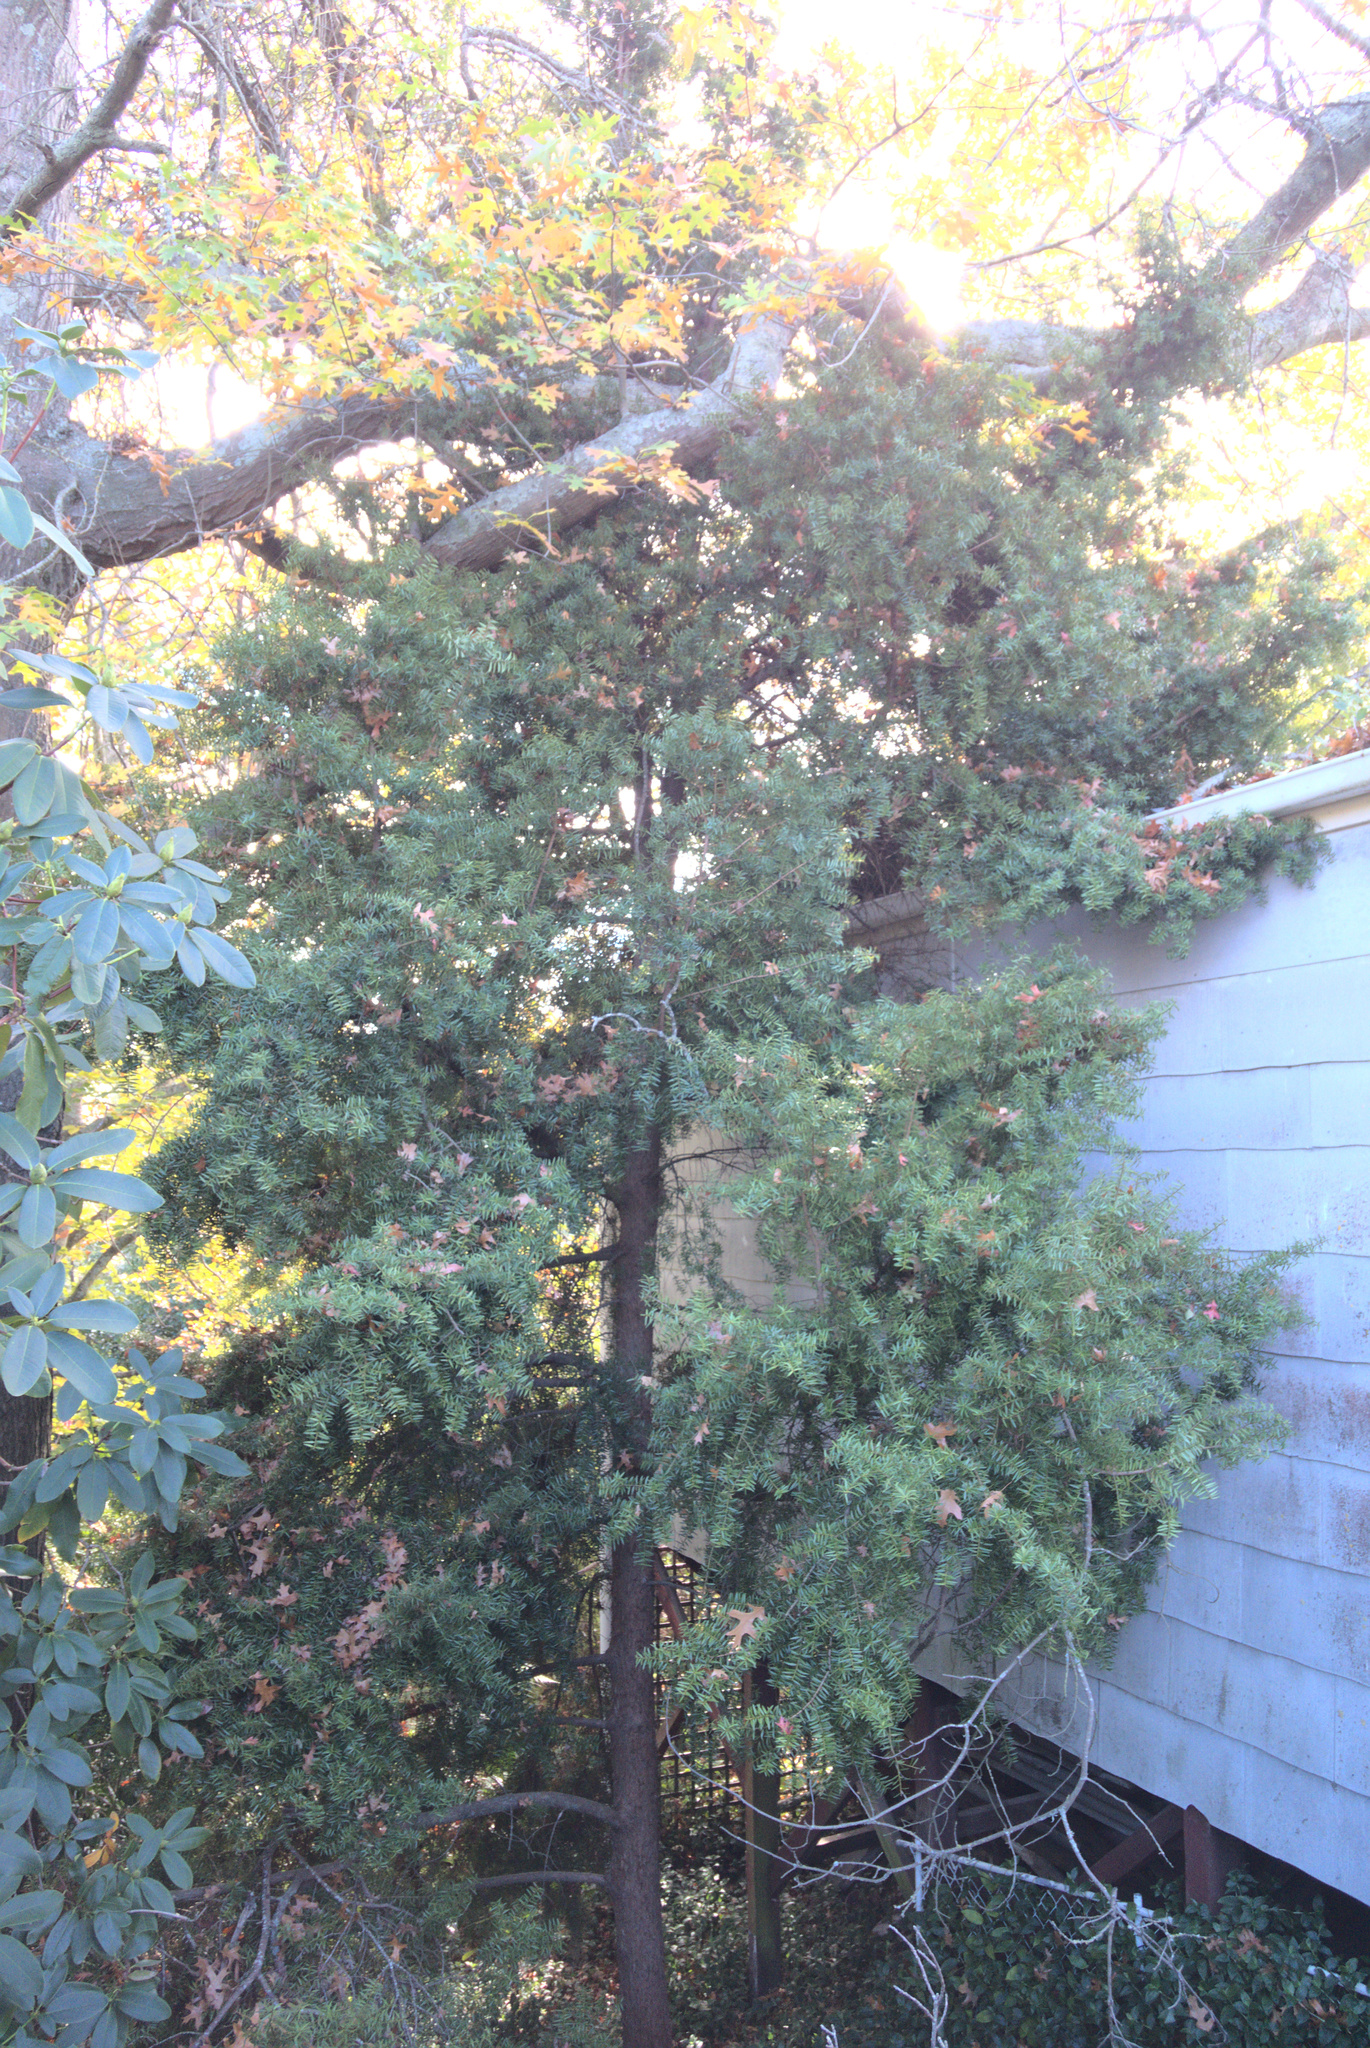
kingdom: Plantae
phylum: Tracheophyta
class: Pinopsida
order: Pinales
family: Podocarpaceae
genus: Podocarpus
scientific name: Podocarpus totara
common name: Totara
